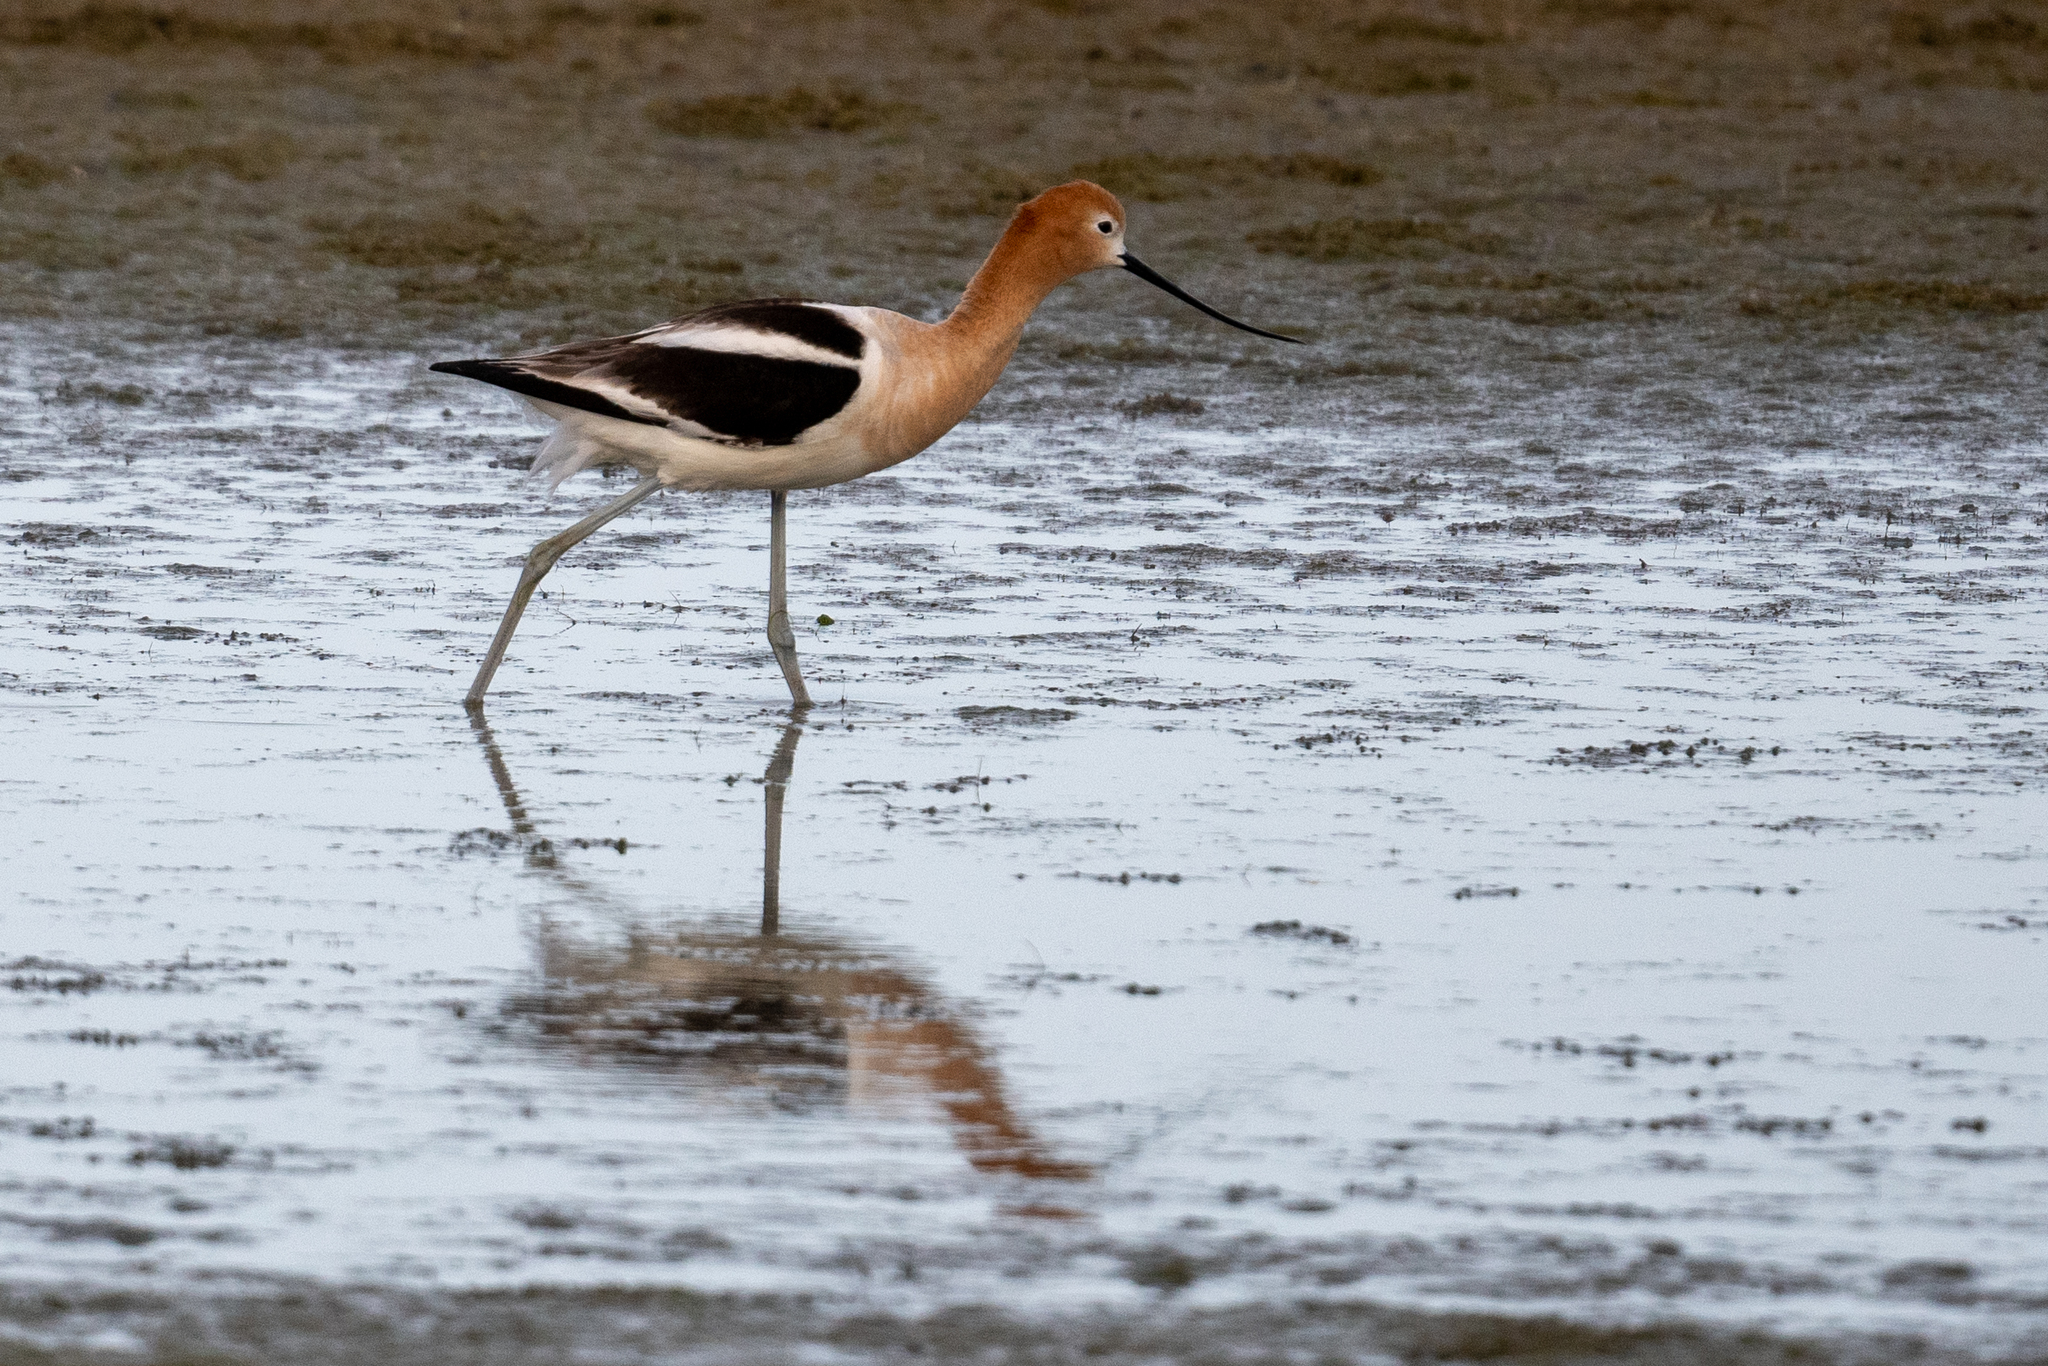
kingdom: Animalia
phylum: Chordata
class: Aves
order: Charadriiformes
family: Recurvirostridae
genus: Recurvirostra
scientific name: Recurvirostra americana
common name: American avocet
